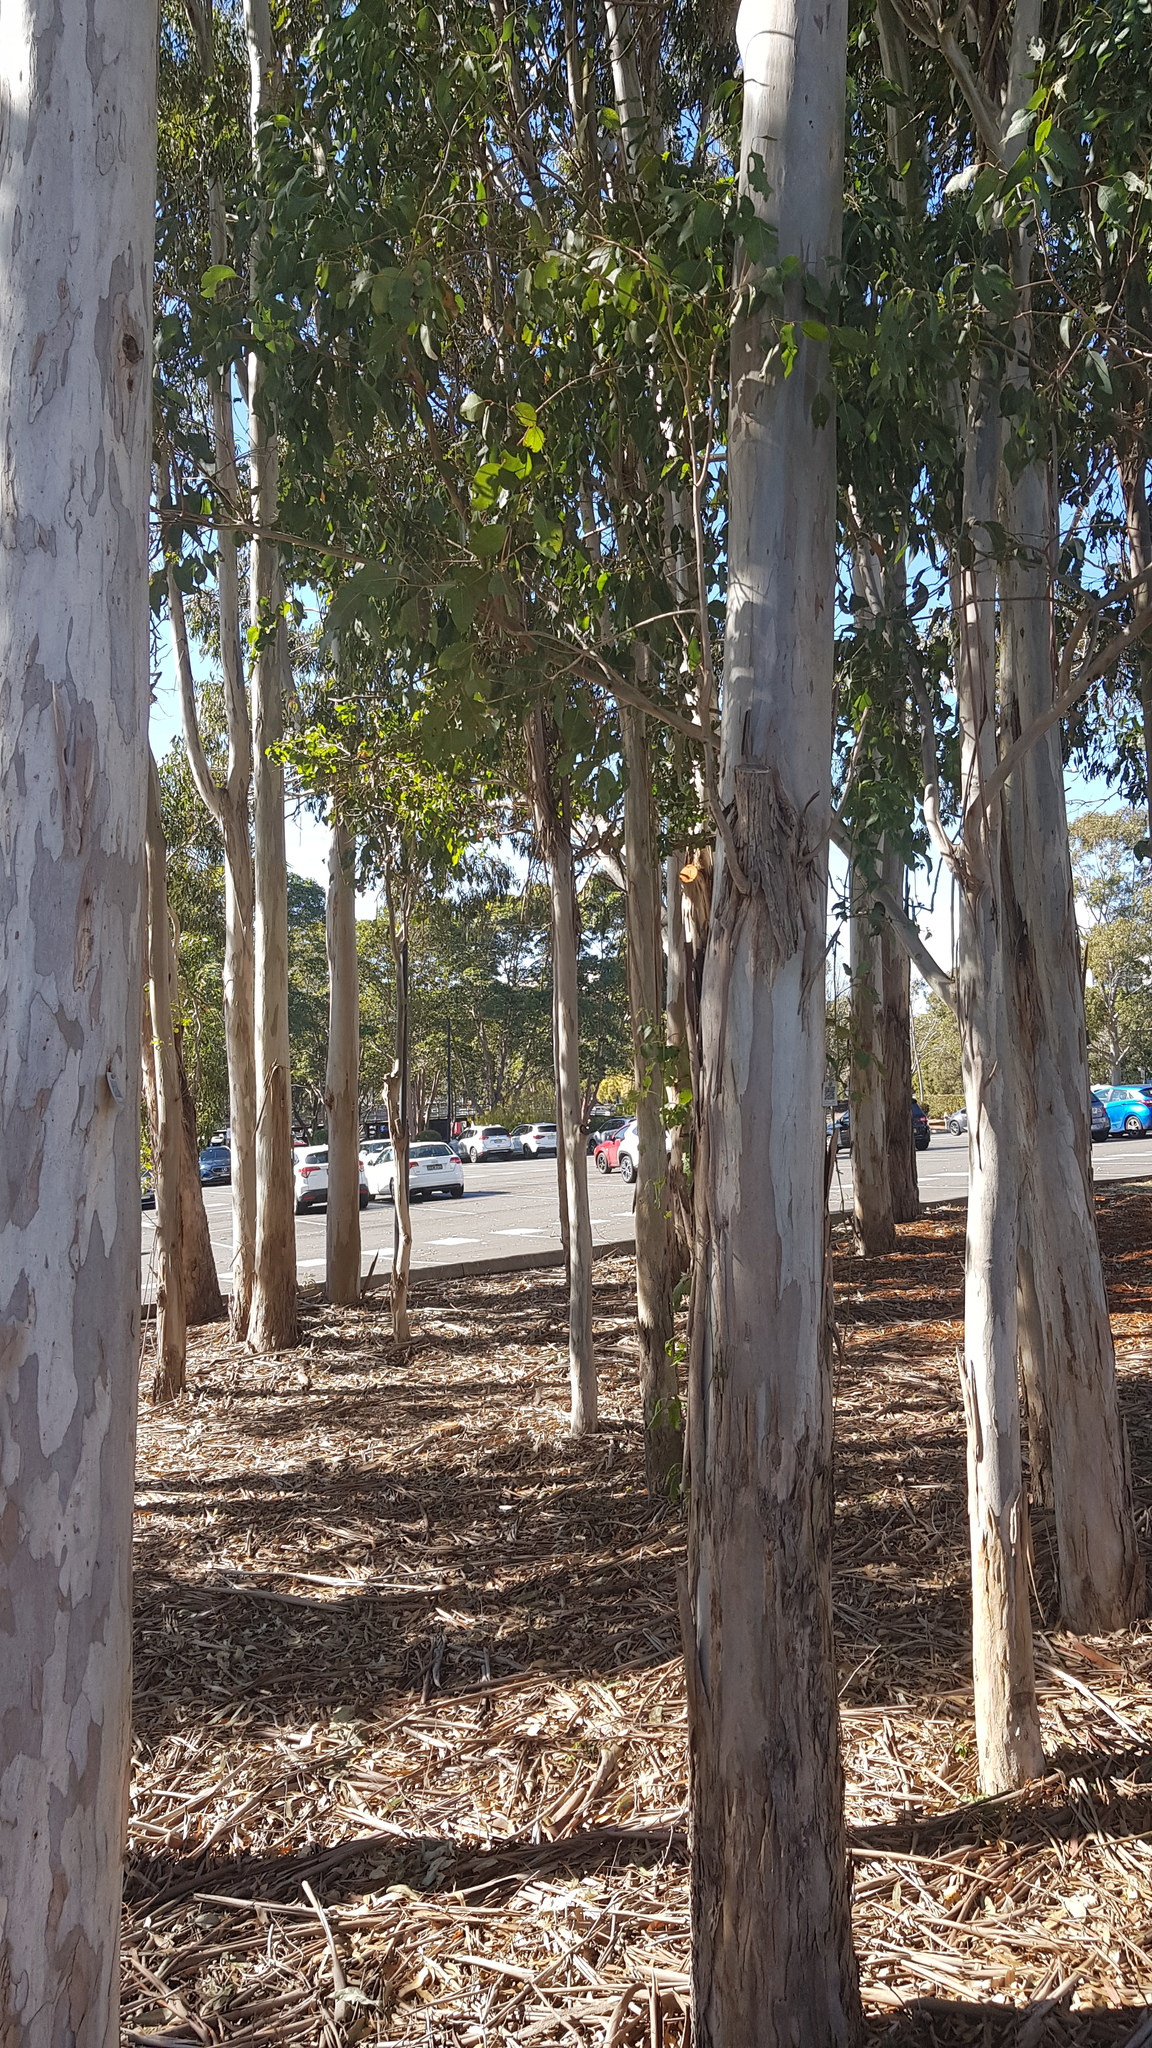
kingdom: Animalia
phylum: Chordata
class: Aves
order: Passeriformes
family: Cracticidae
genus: Cracticus
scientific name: Cracticus torquatus
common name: Grey butcherbird
